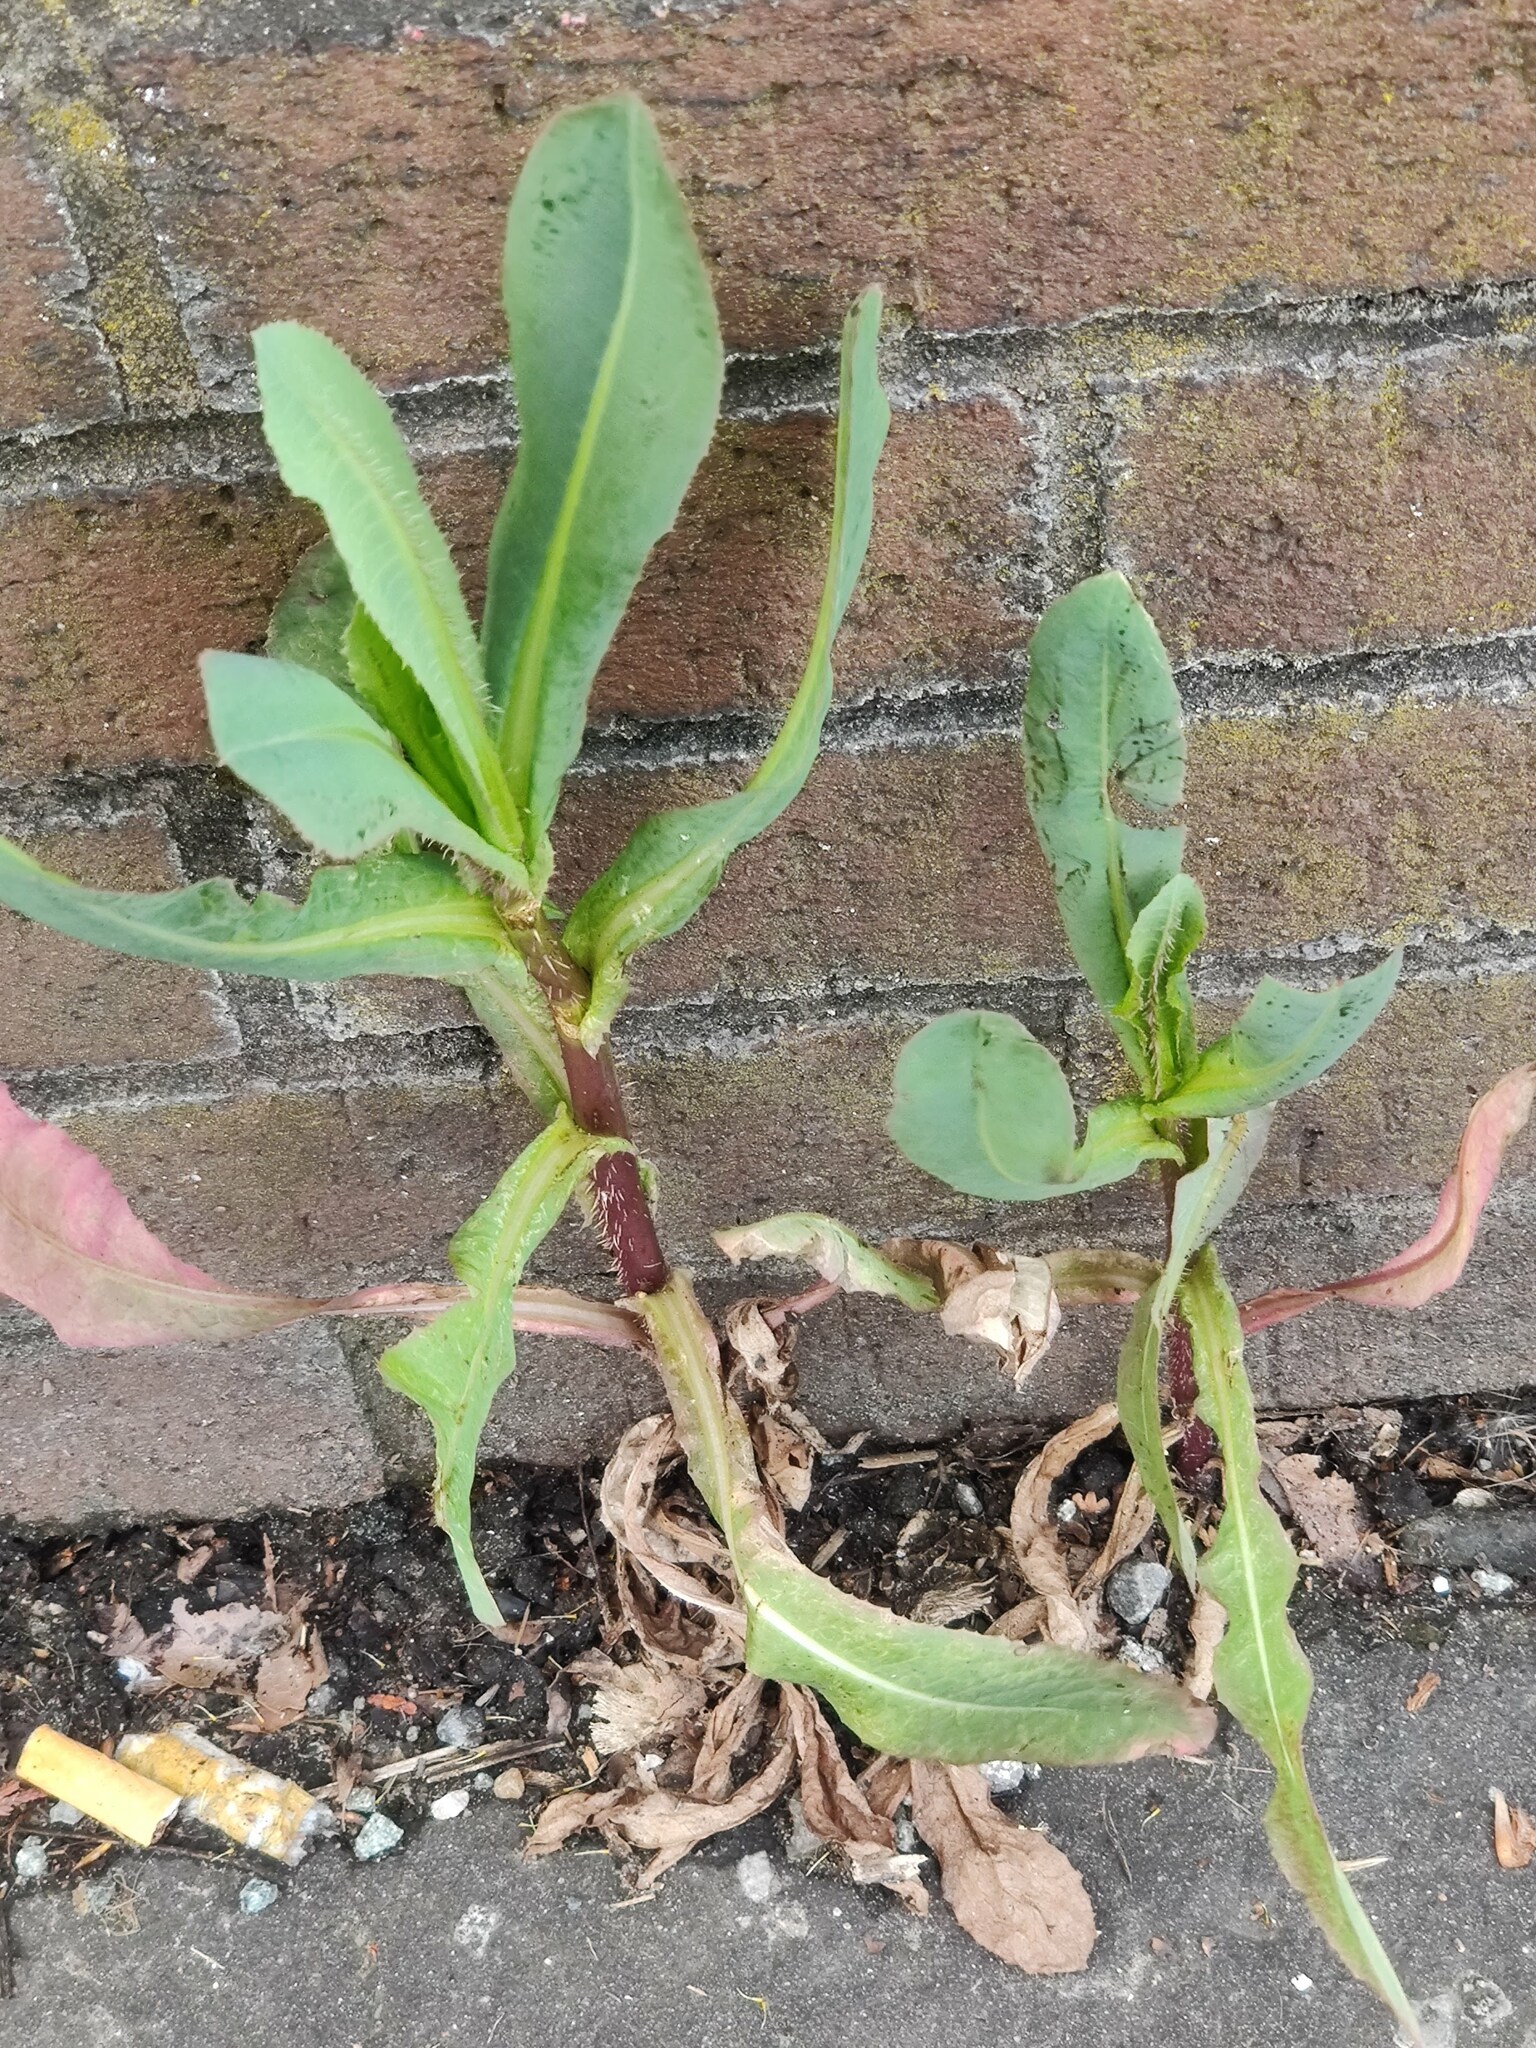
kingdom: Plantae
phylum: Tracheophyta
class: Magnoliopsida
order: Asterales
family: Asteraceae
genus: Lactuca
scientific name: Lactuca serriola
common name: Prickly lettuce
